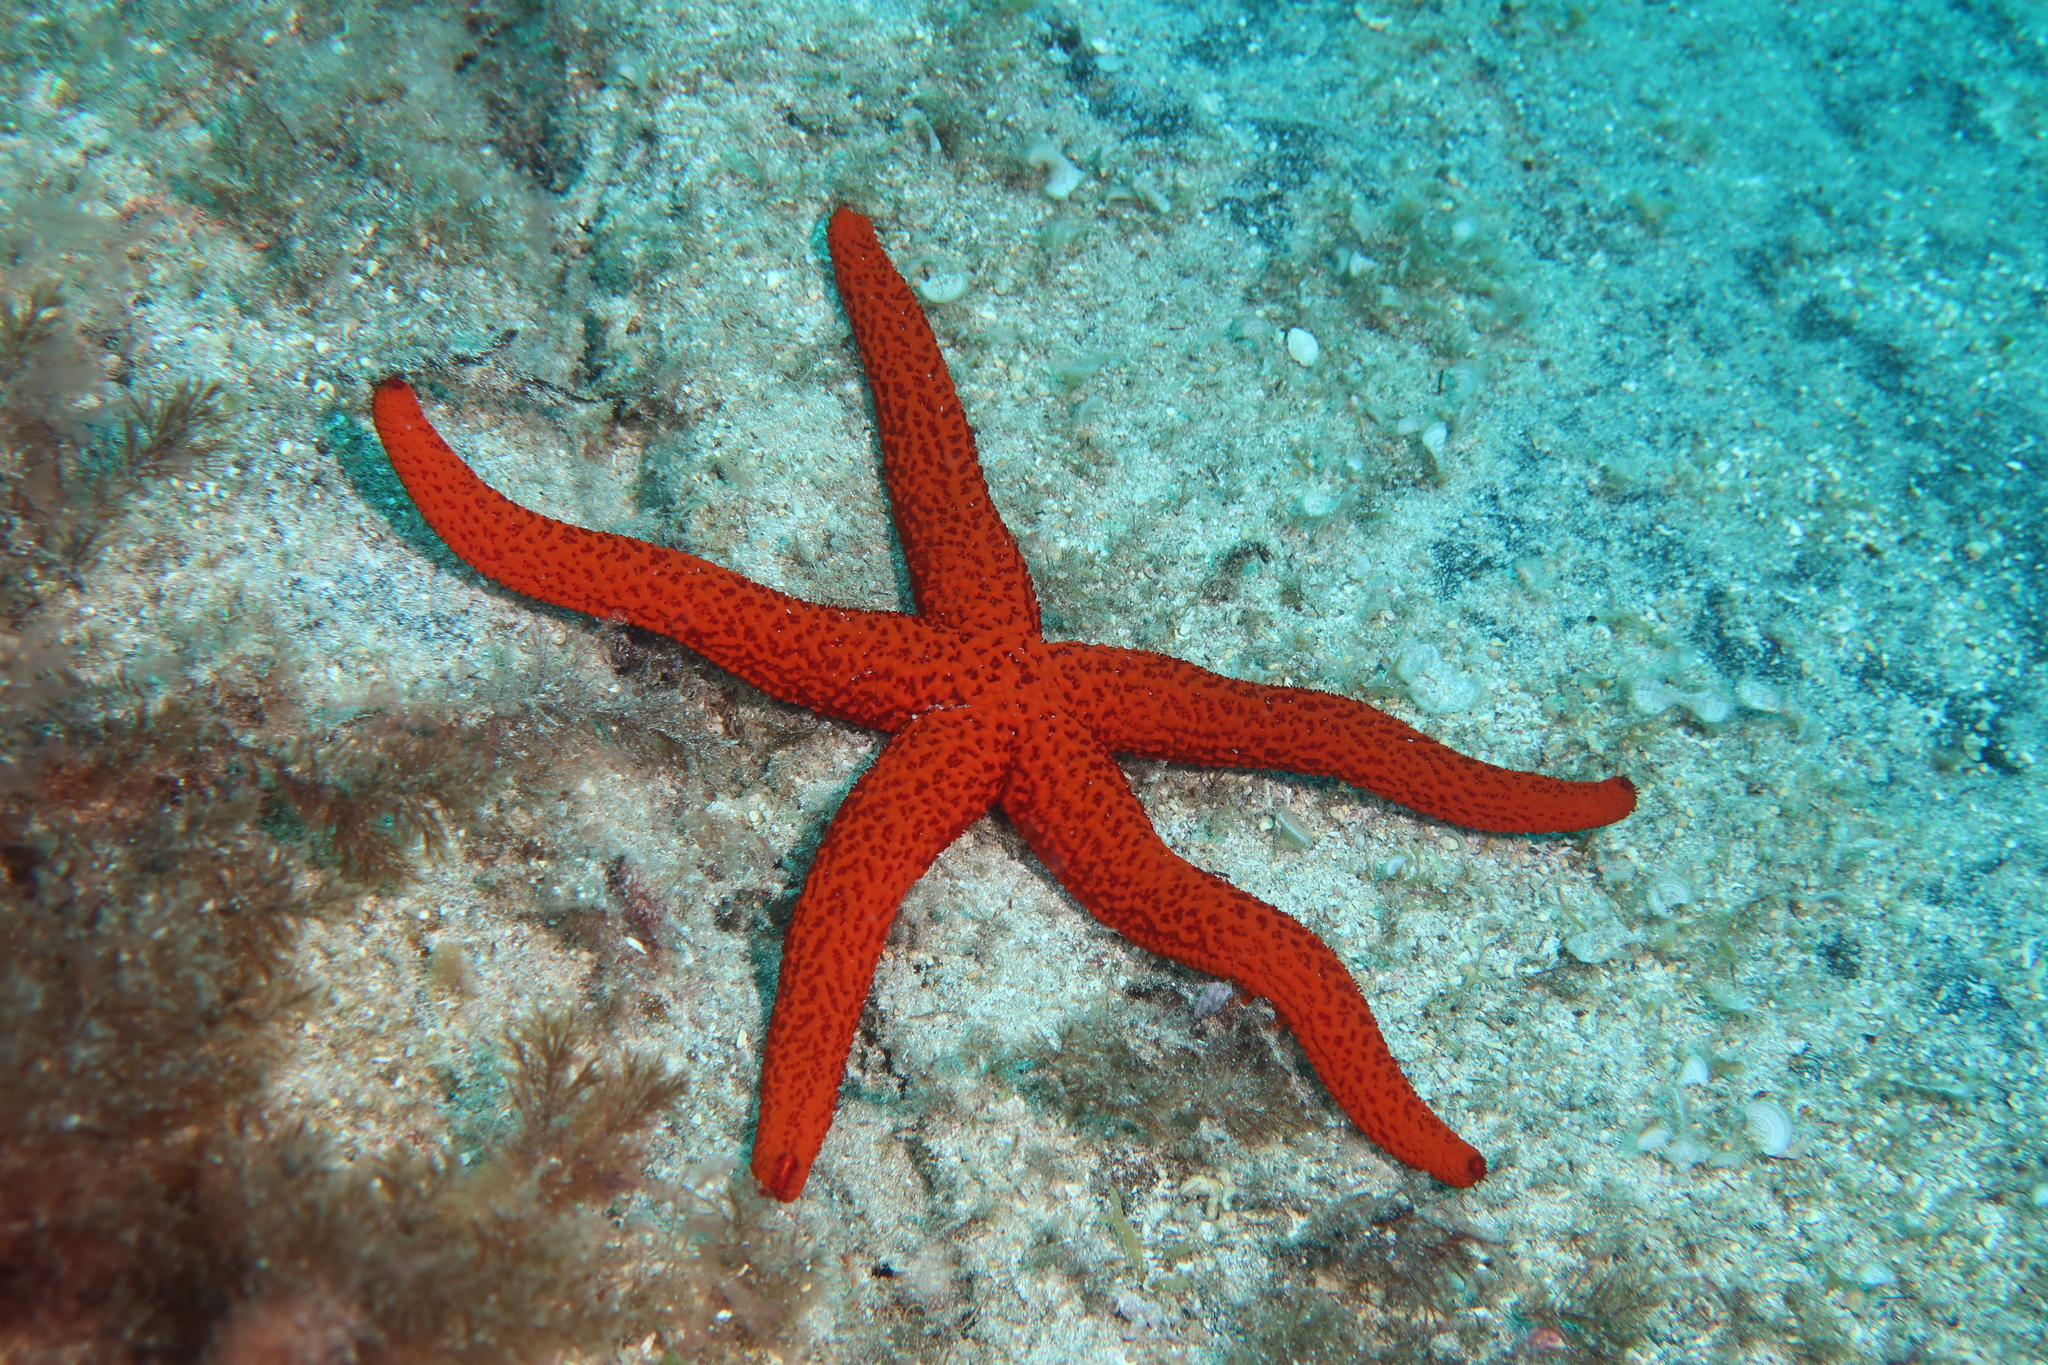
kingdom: Animalia
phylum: Echinodermata
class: Asteroidea
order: Spinulosida
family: Echinasteridae
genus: Echinaster
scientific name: Echinaster sepositus
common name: Red starfish
